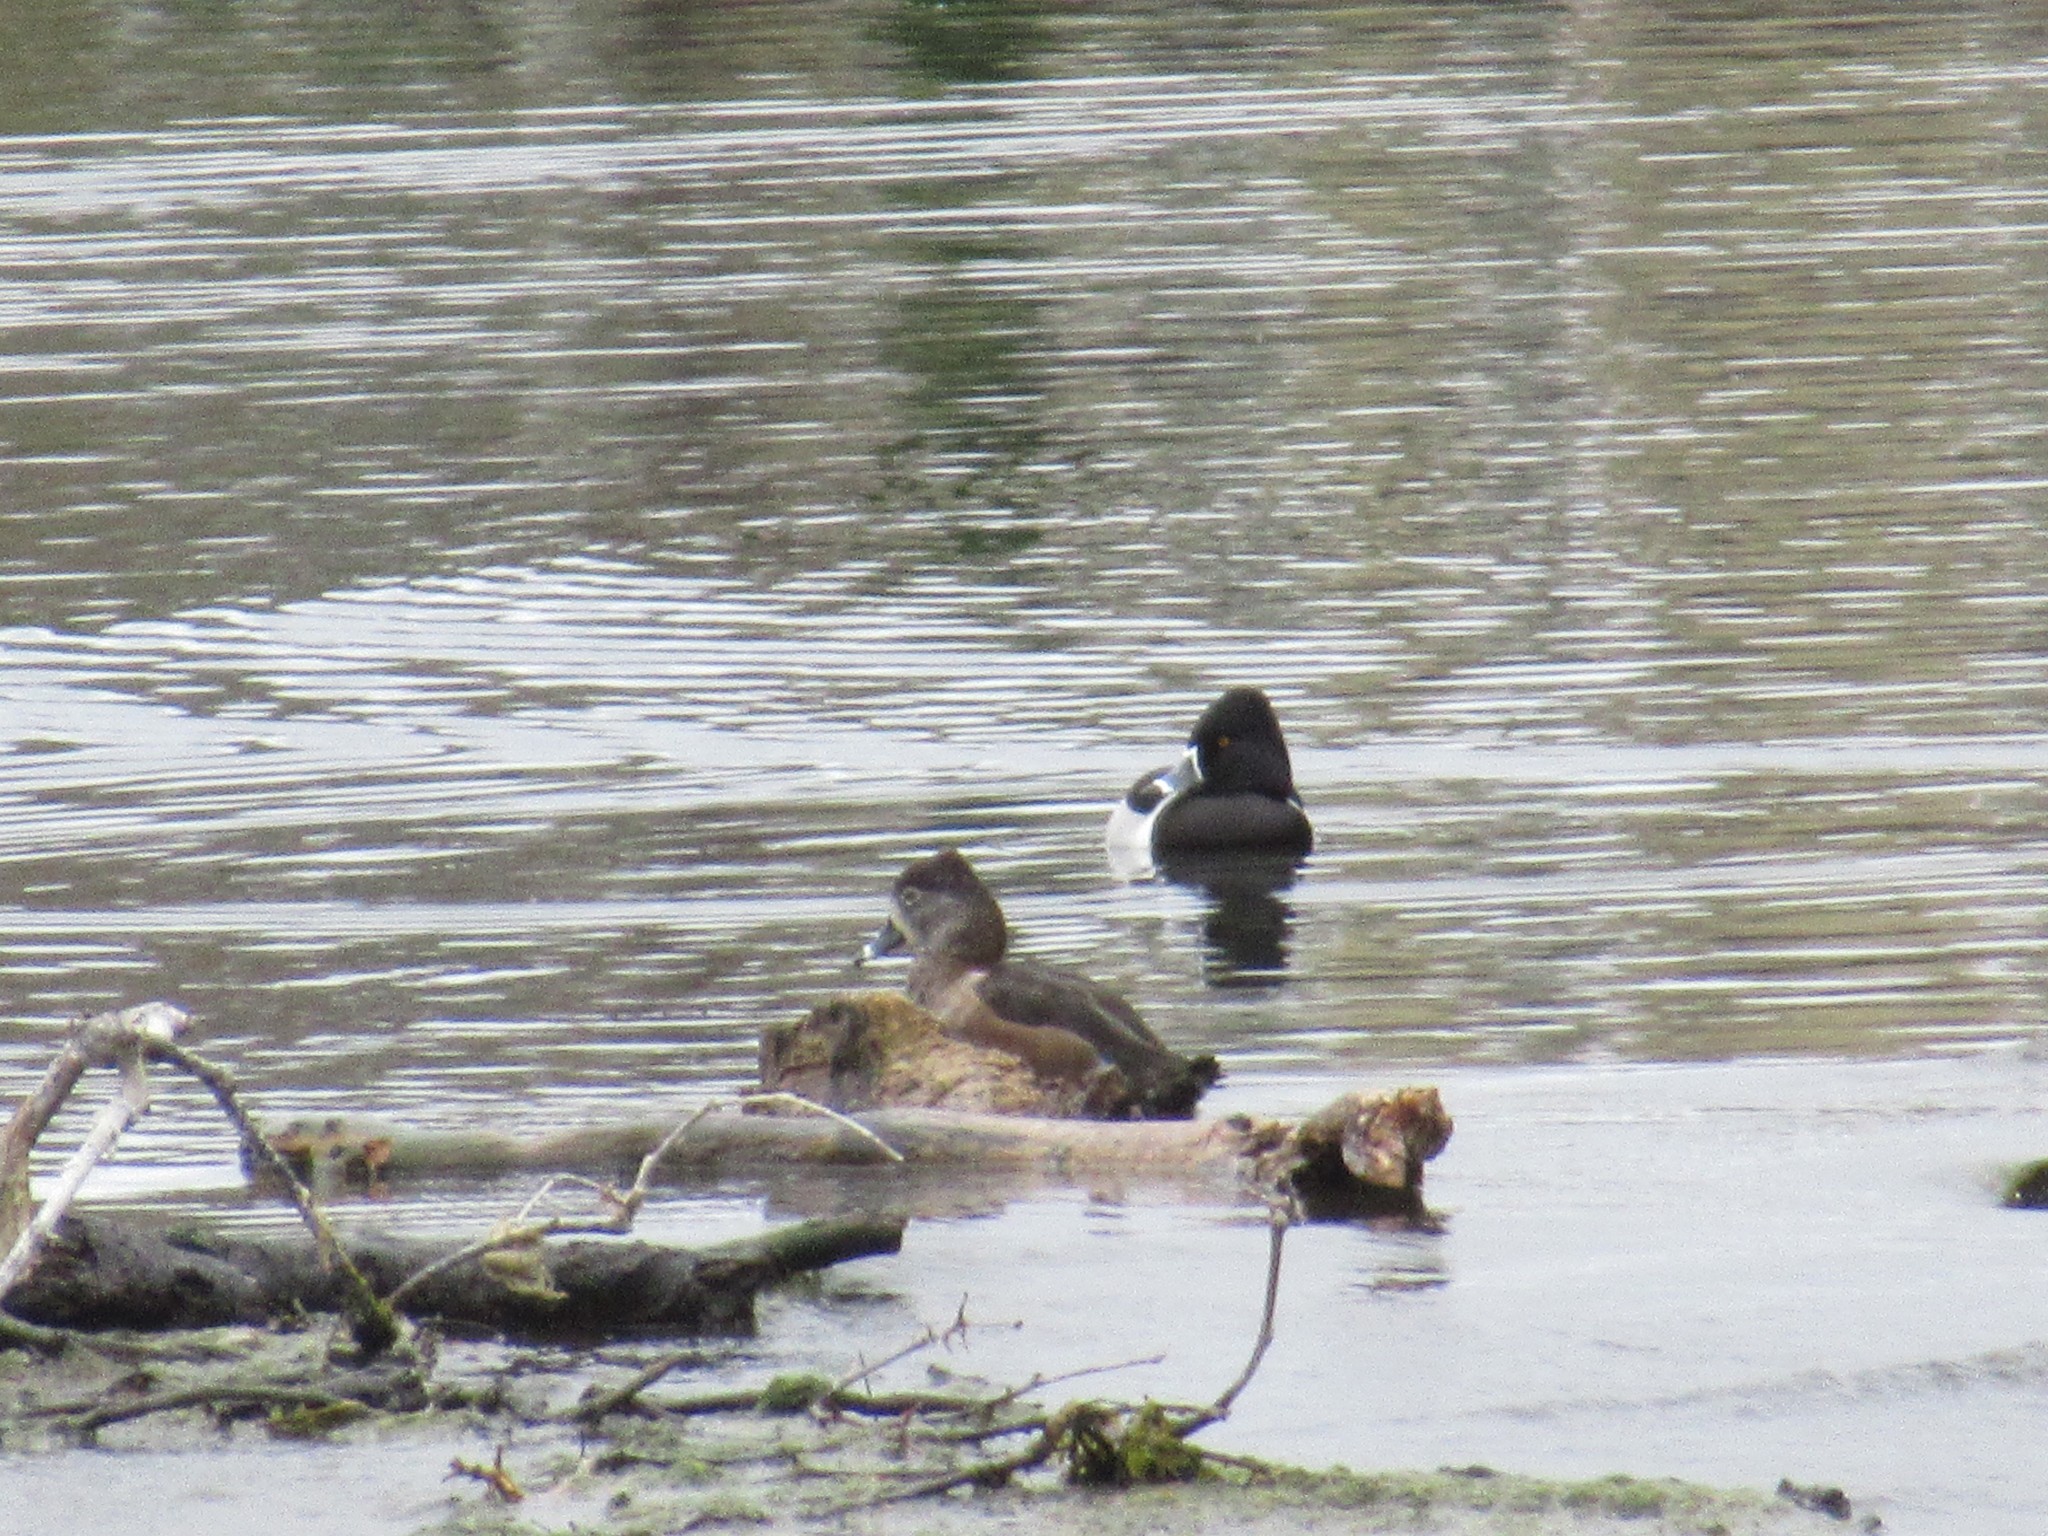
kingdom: Animalia
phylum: Chordata
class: Aves
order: Anseriformes
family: Anatidae
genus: Aythya
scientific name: Aythya collaris
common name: Ring-necked duck
